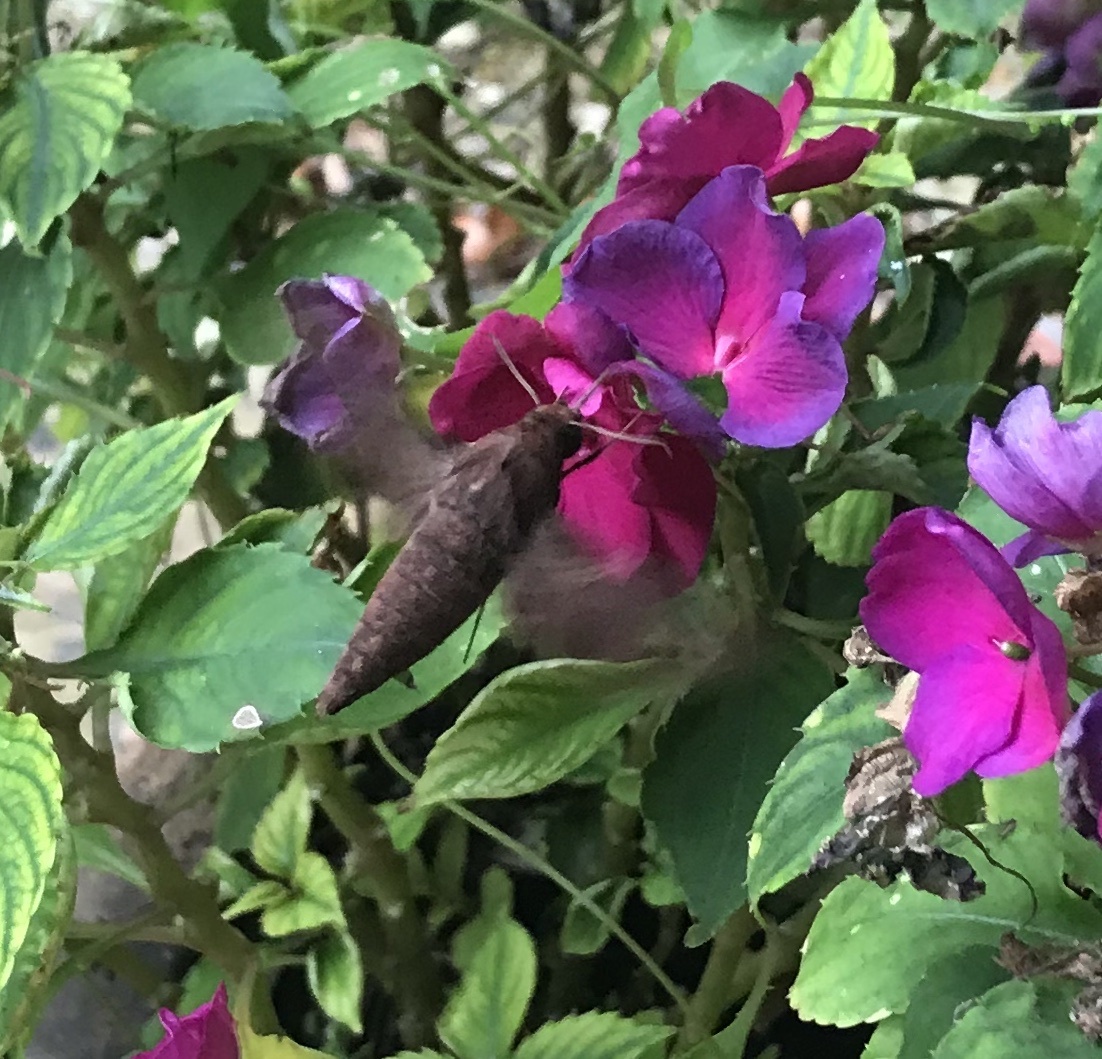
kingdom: Animalia
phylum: Arthropoda
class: Insecta
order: Lepidoptera
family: Sphingidae
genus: Enyo
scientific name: Enyo lugubris
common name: Mournful sphinx
